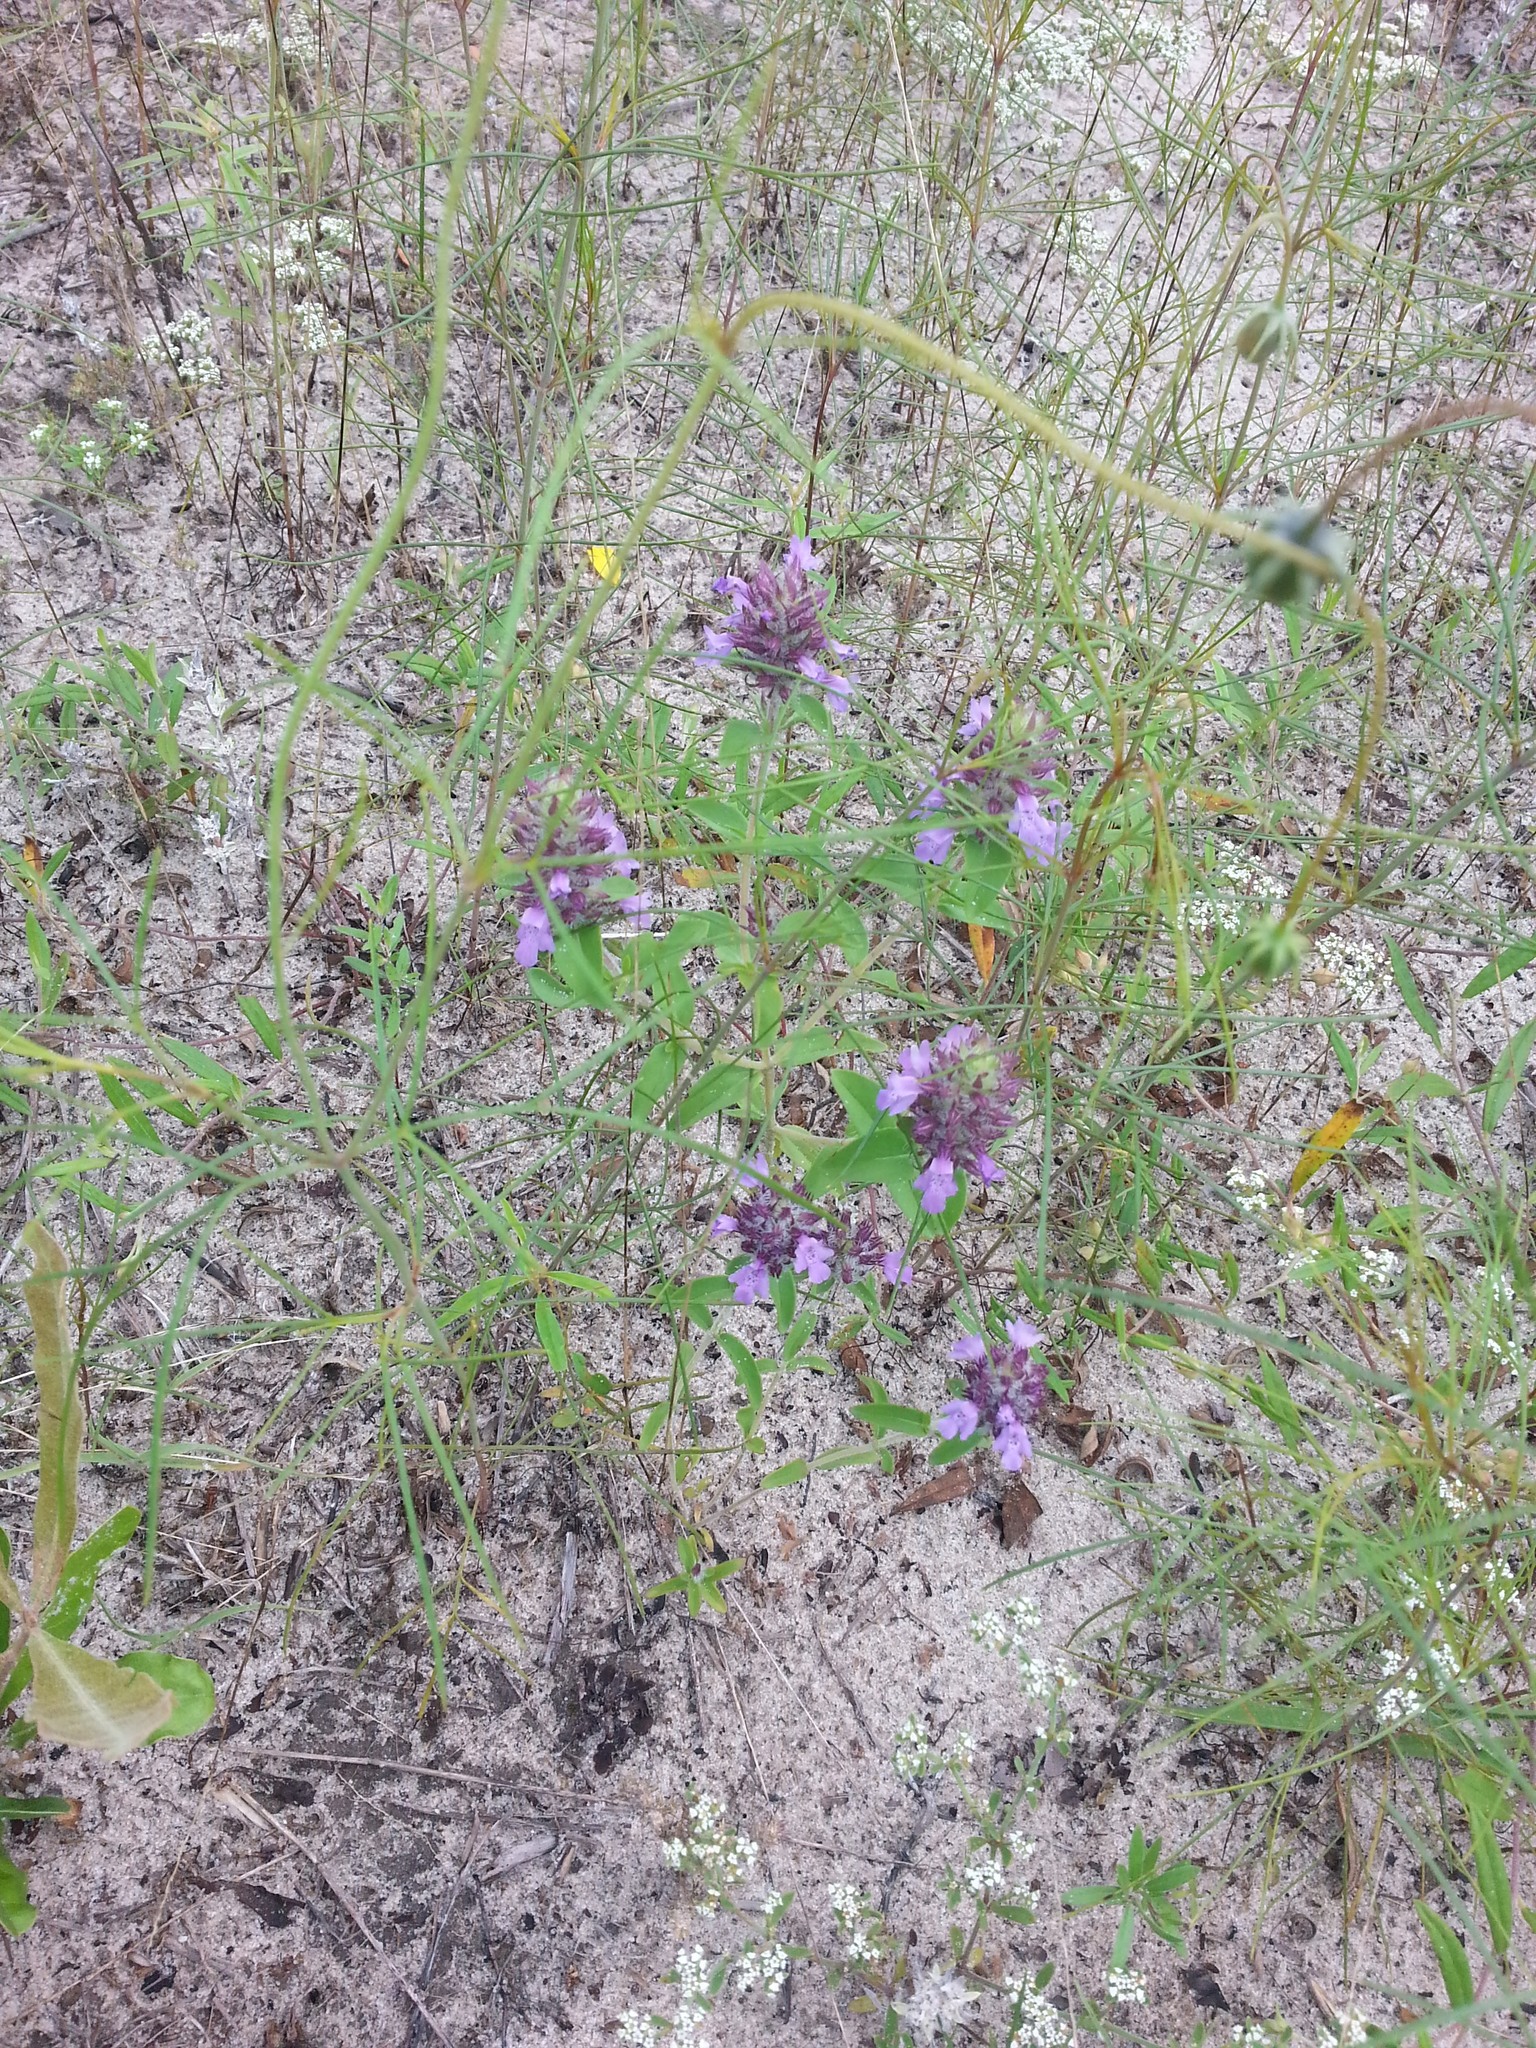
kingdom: Plantae
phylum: Tracheophyta
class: Magnoliopsida
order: Lamiales
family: Lamiaceae
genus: Rhododon
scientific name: Rhododon ciliatus
